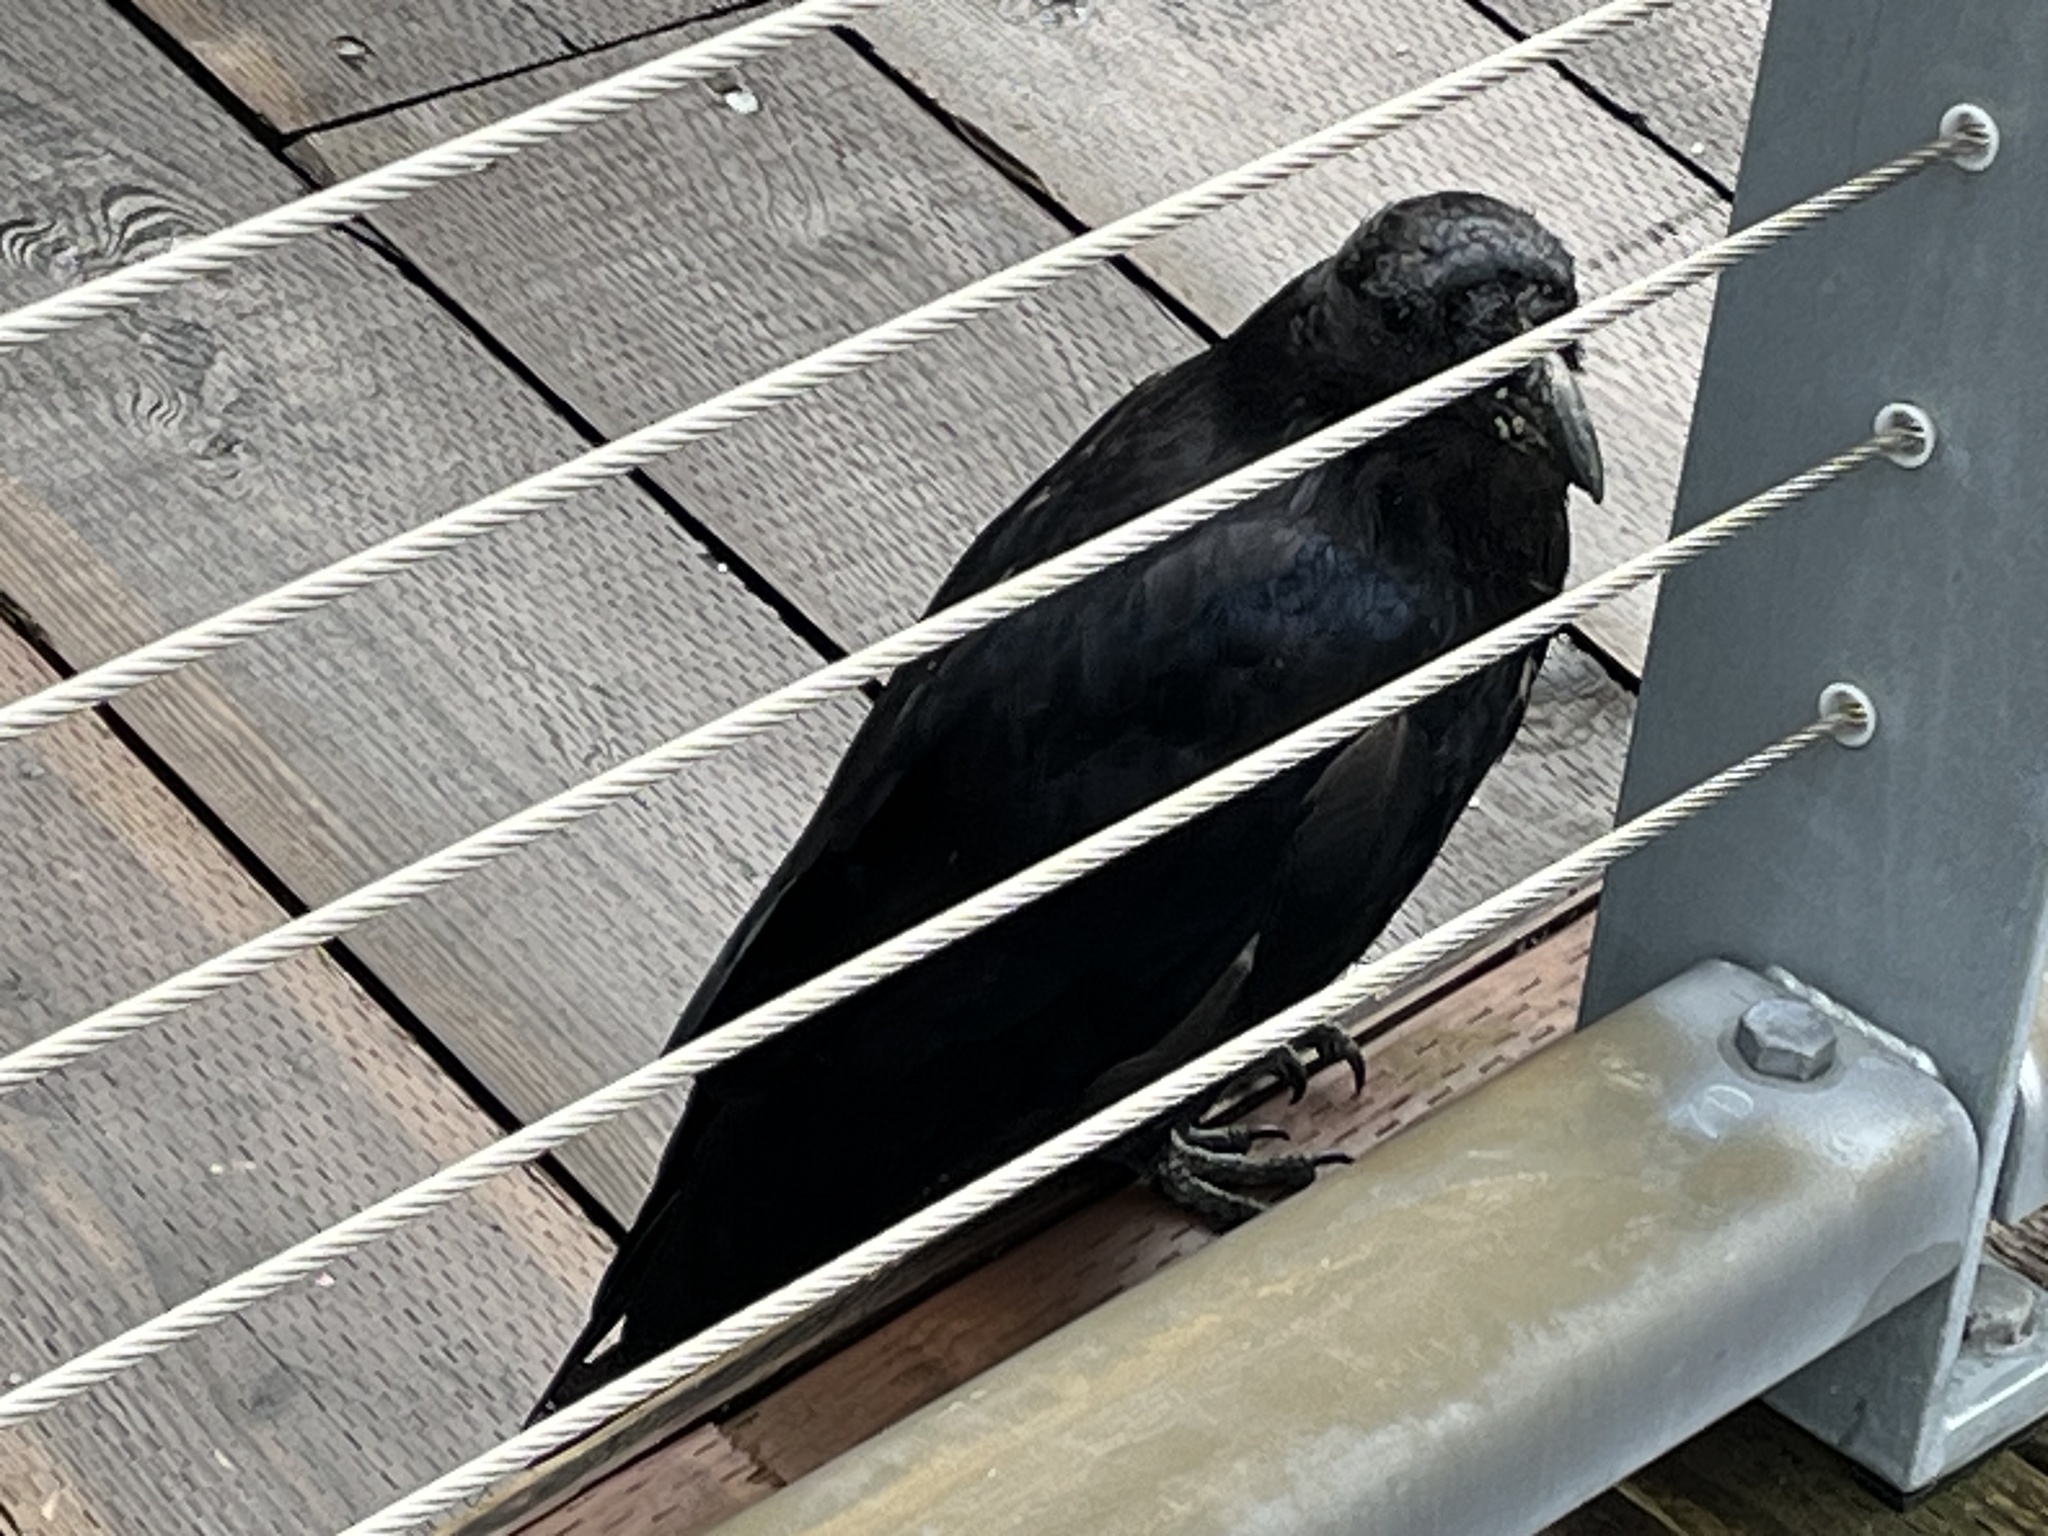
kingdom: Animalia
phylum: Chordata
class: Aves
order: Passeriformes
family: Corvidae
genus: Corvus
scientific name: Corvus corax
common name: Common raven
